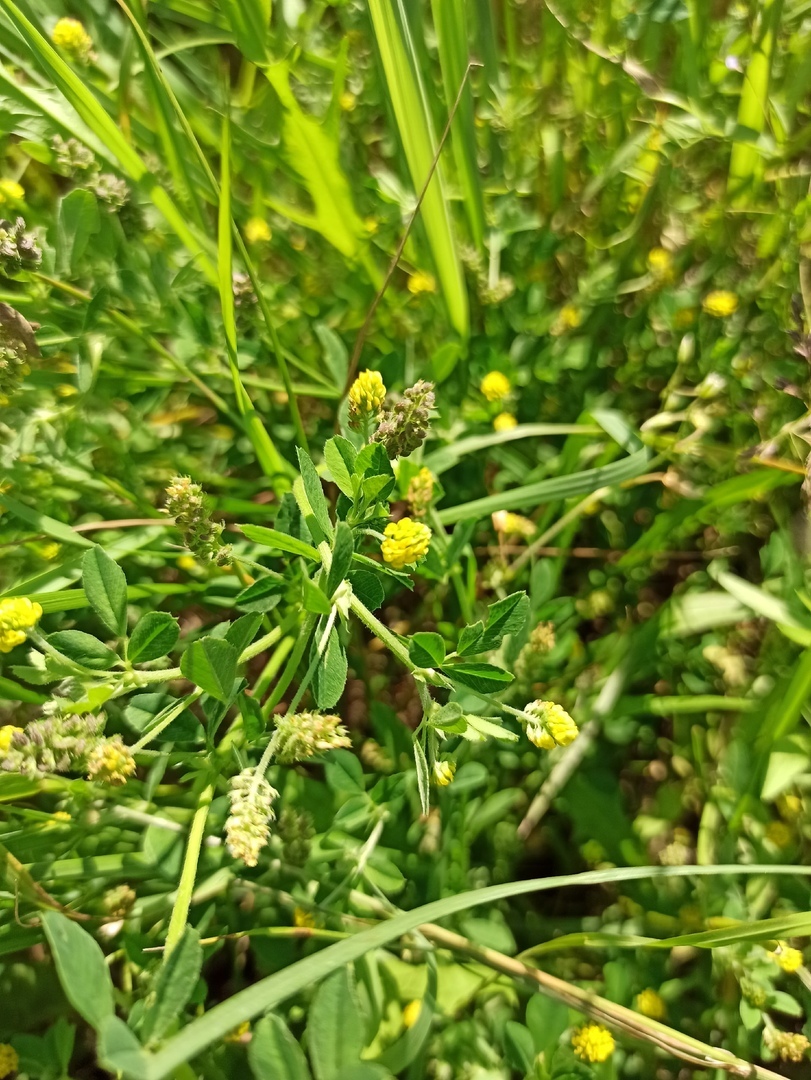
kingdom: Plantae
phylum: Tracheophyta
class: Magnoliopsida
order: Fabales
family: Fabaceae
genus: Medicago
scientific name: Medicago lupulina
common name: Black medick
